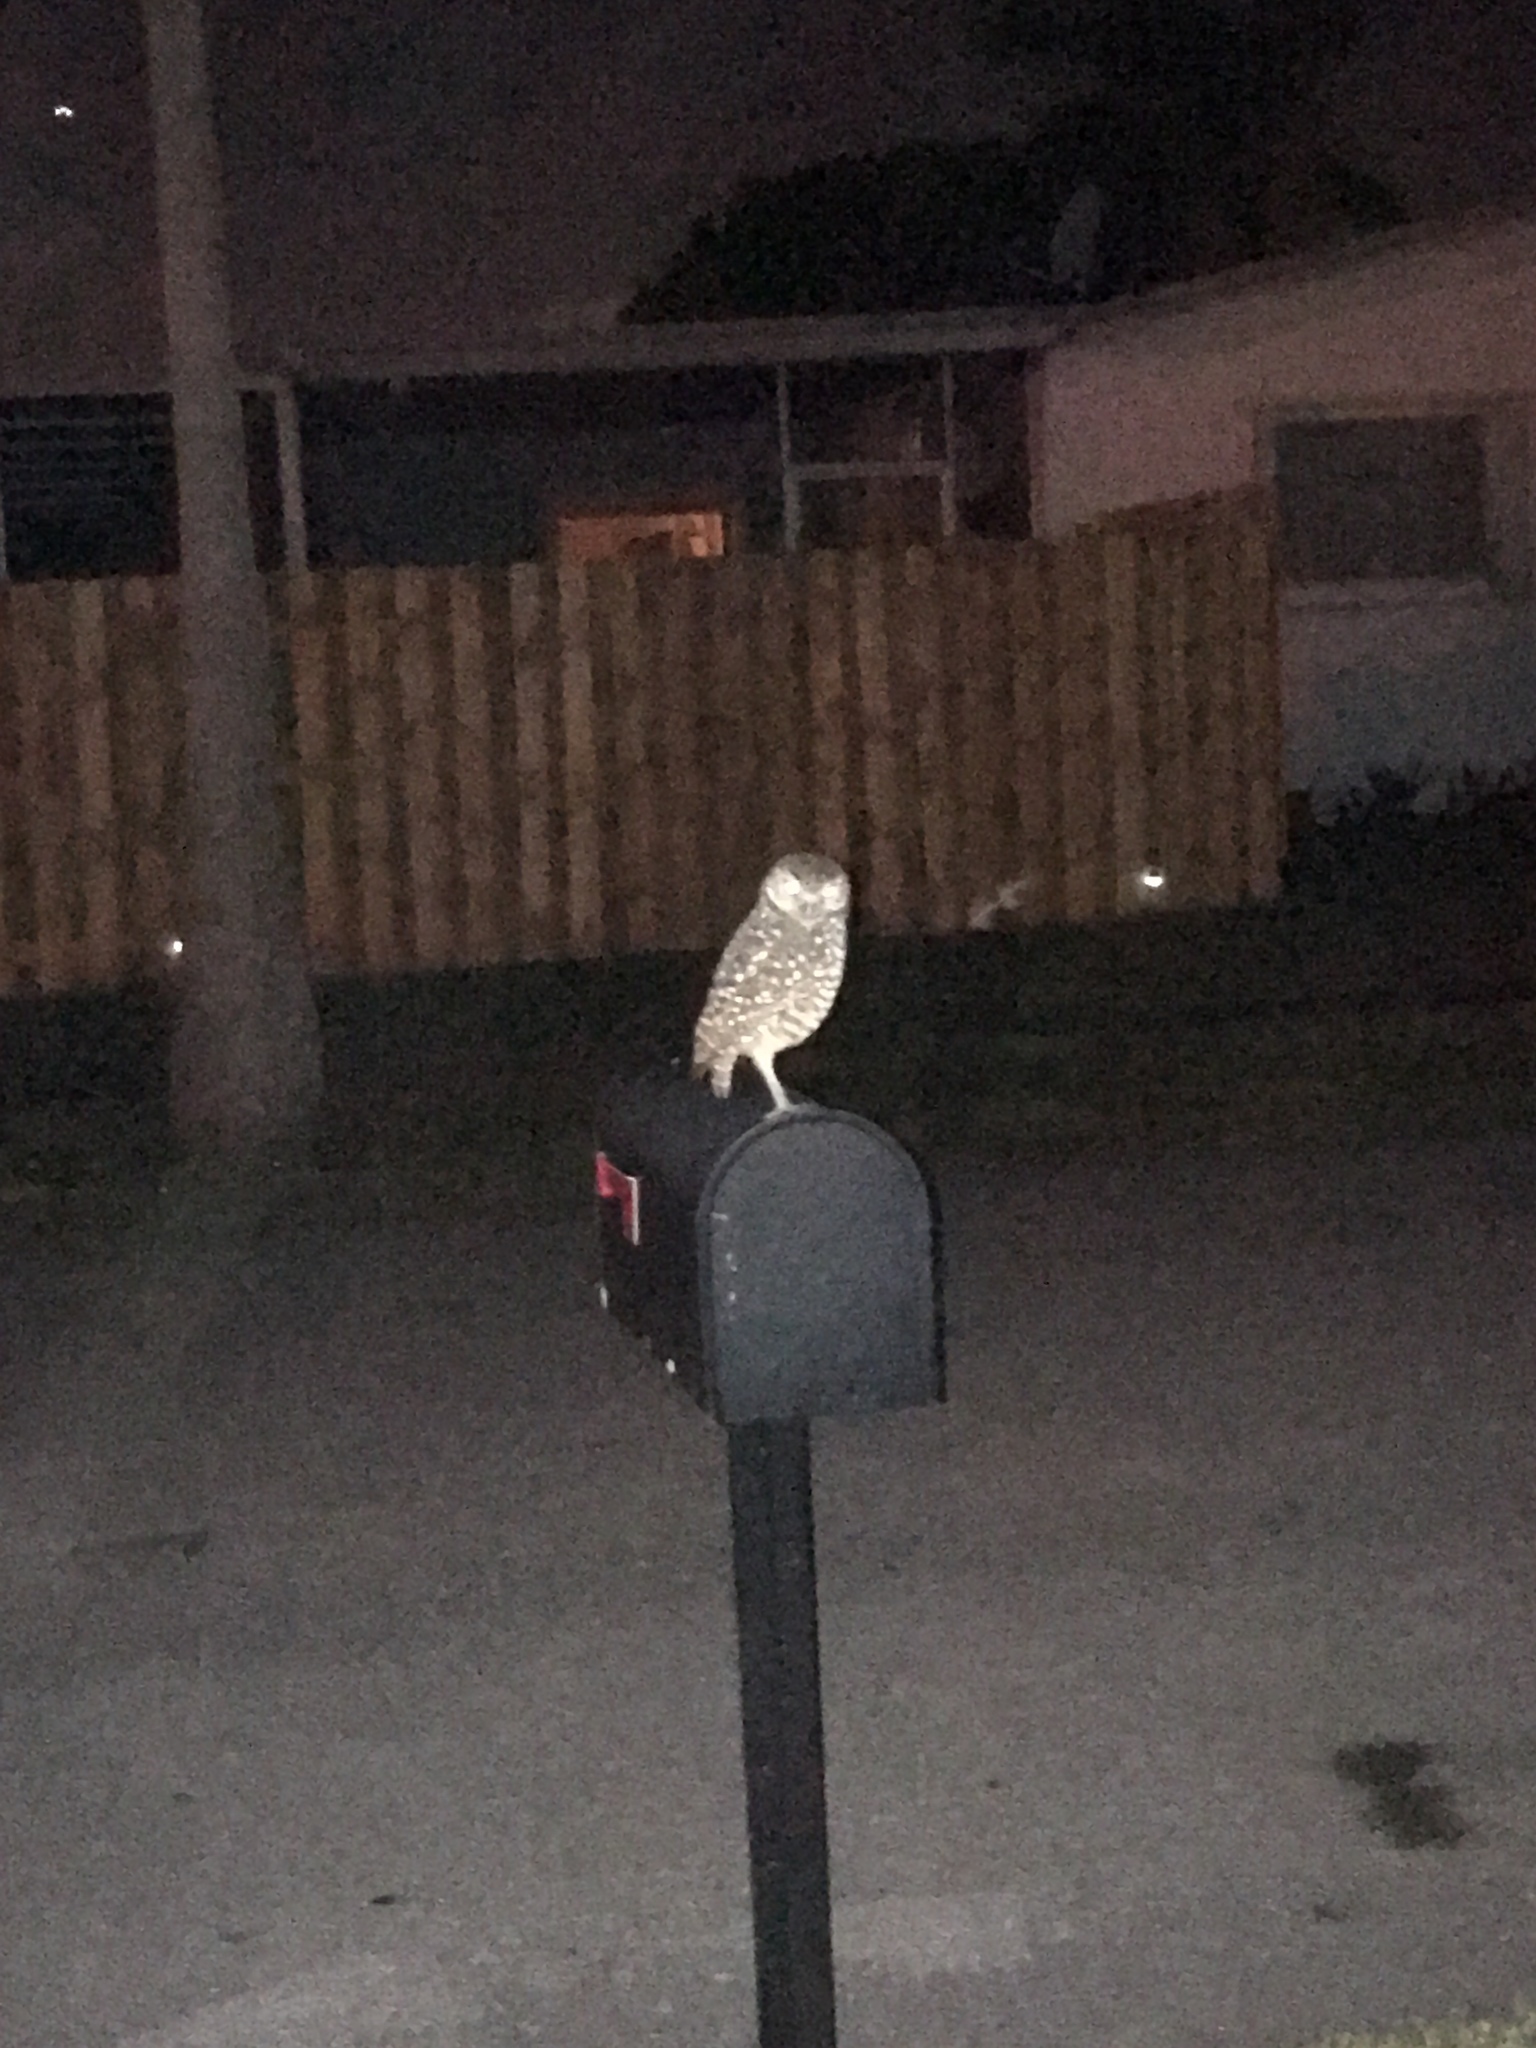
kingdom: Animalia
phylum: Chordata
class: Aves
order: Strigiformes
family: Strigidae
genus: Athene
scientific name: Athene cunicularia
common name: Burrowing owl
